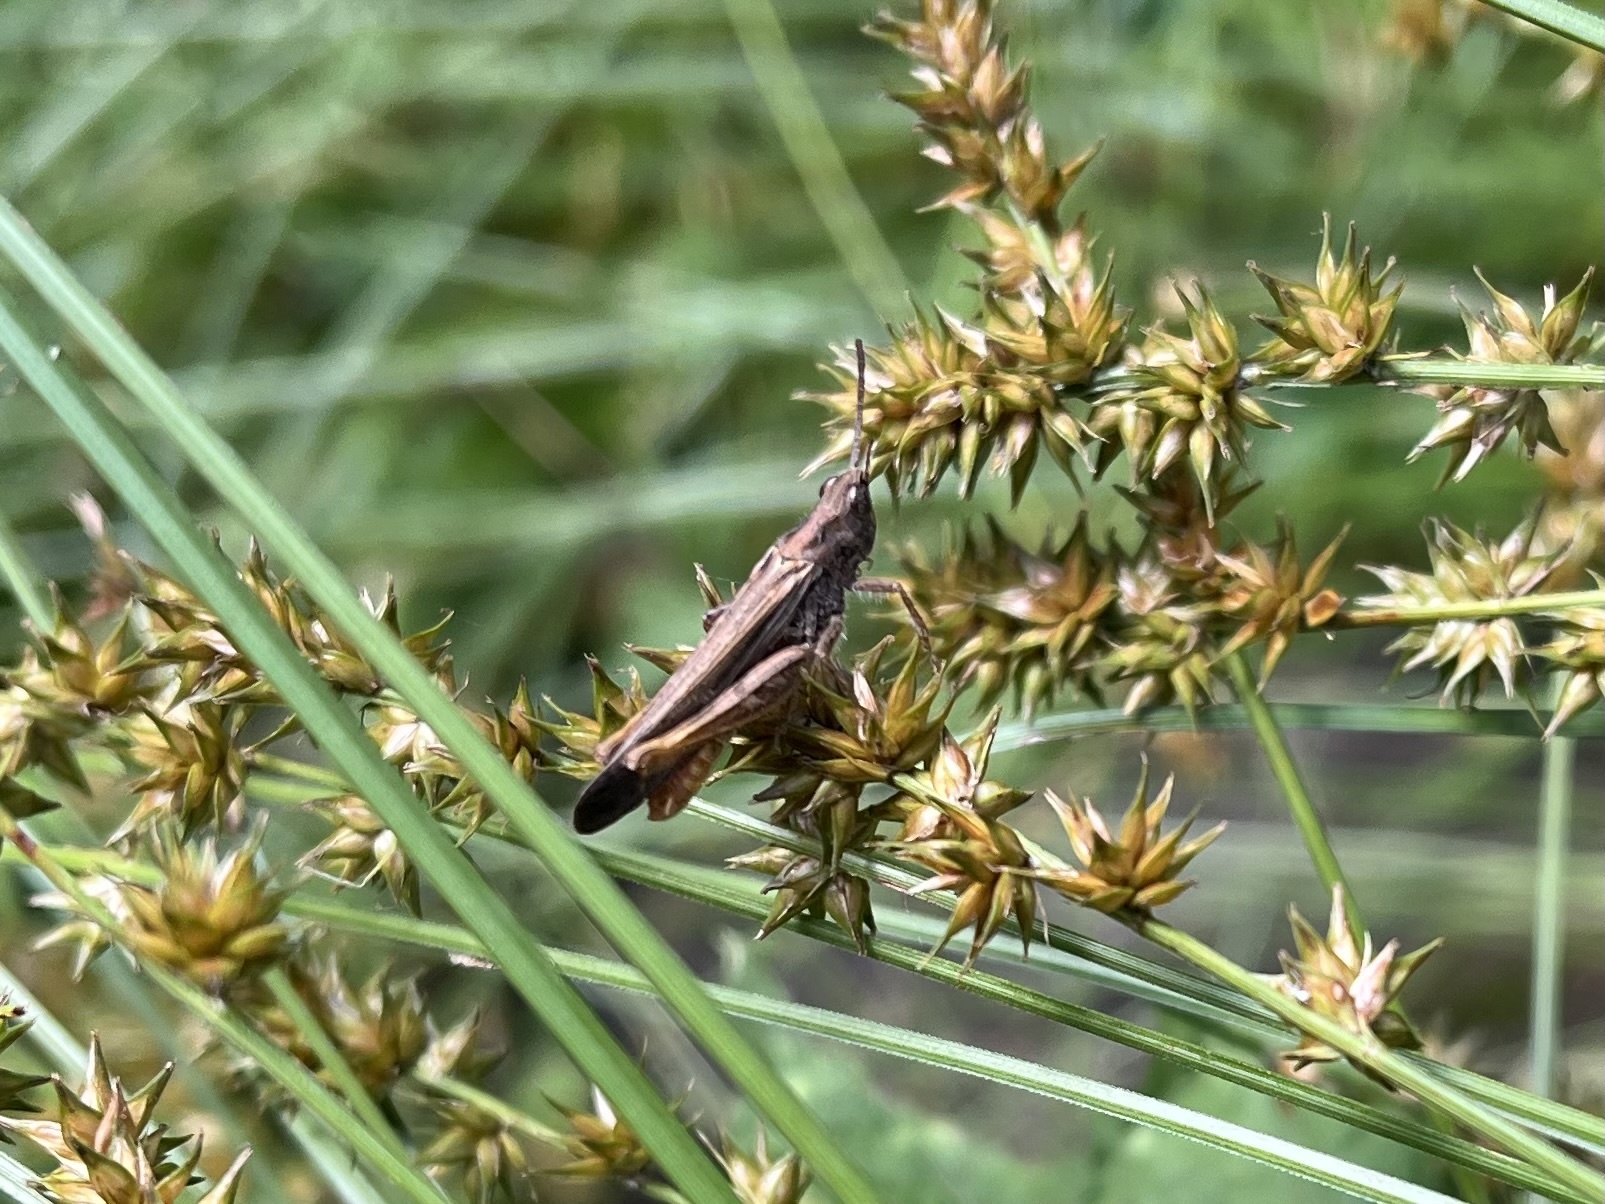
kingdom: Animalia
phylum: Arthropoda
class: Insecta
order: Orthoptera
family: Acrididae
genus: Chorthippus
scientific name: Chorthippus brunneus
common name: Field grasshopper
